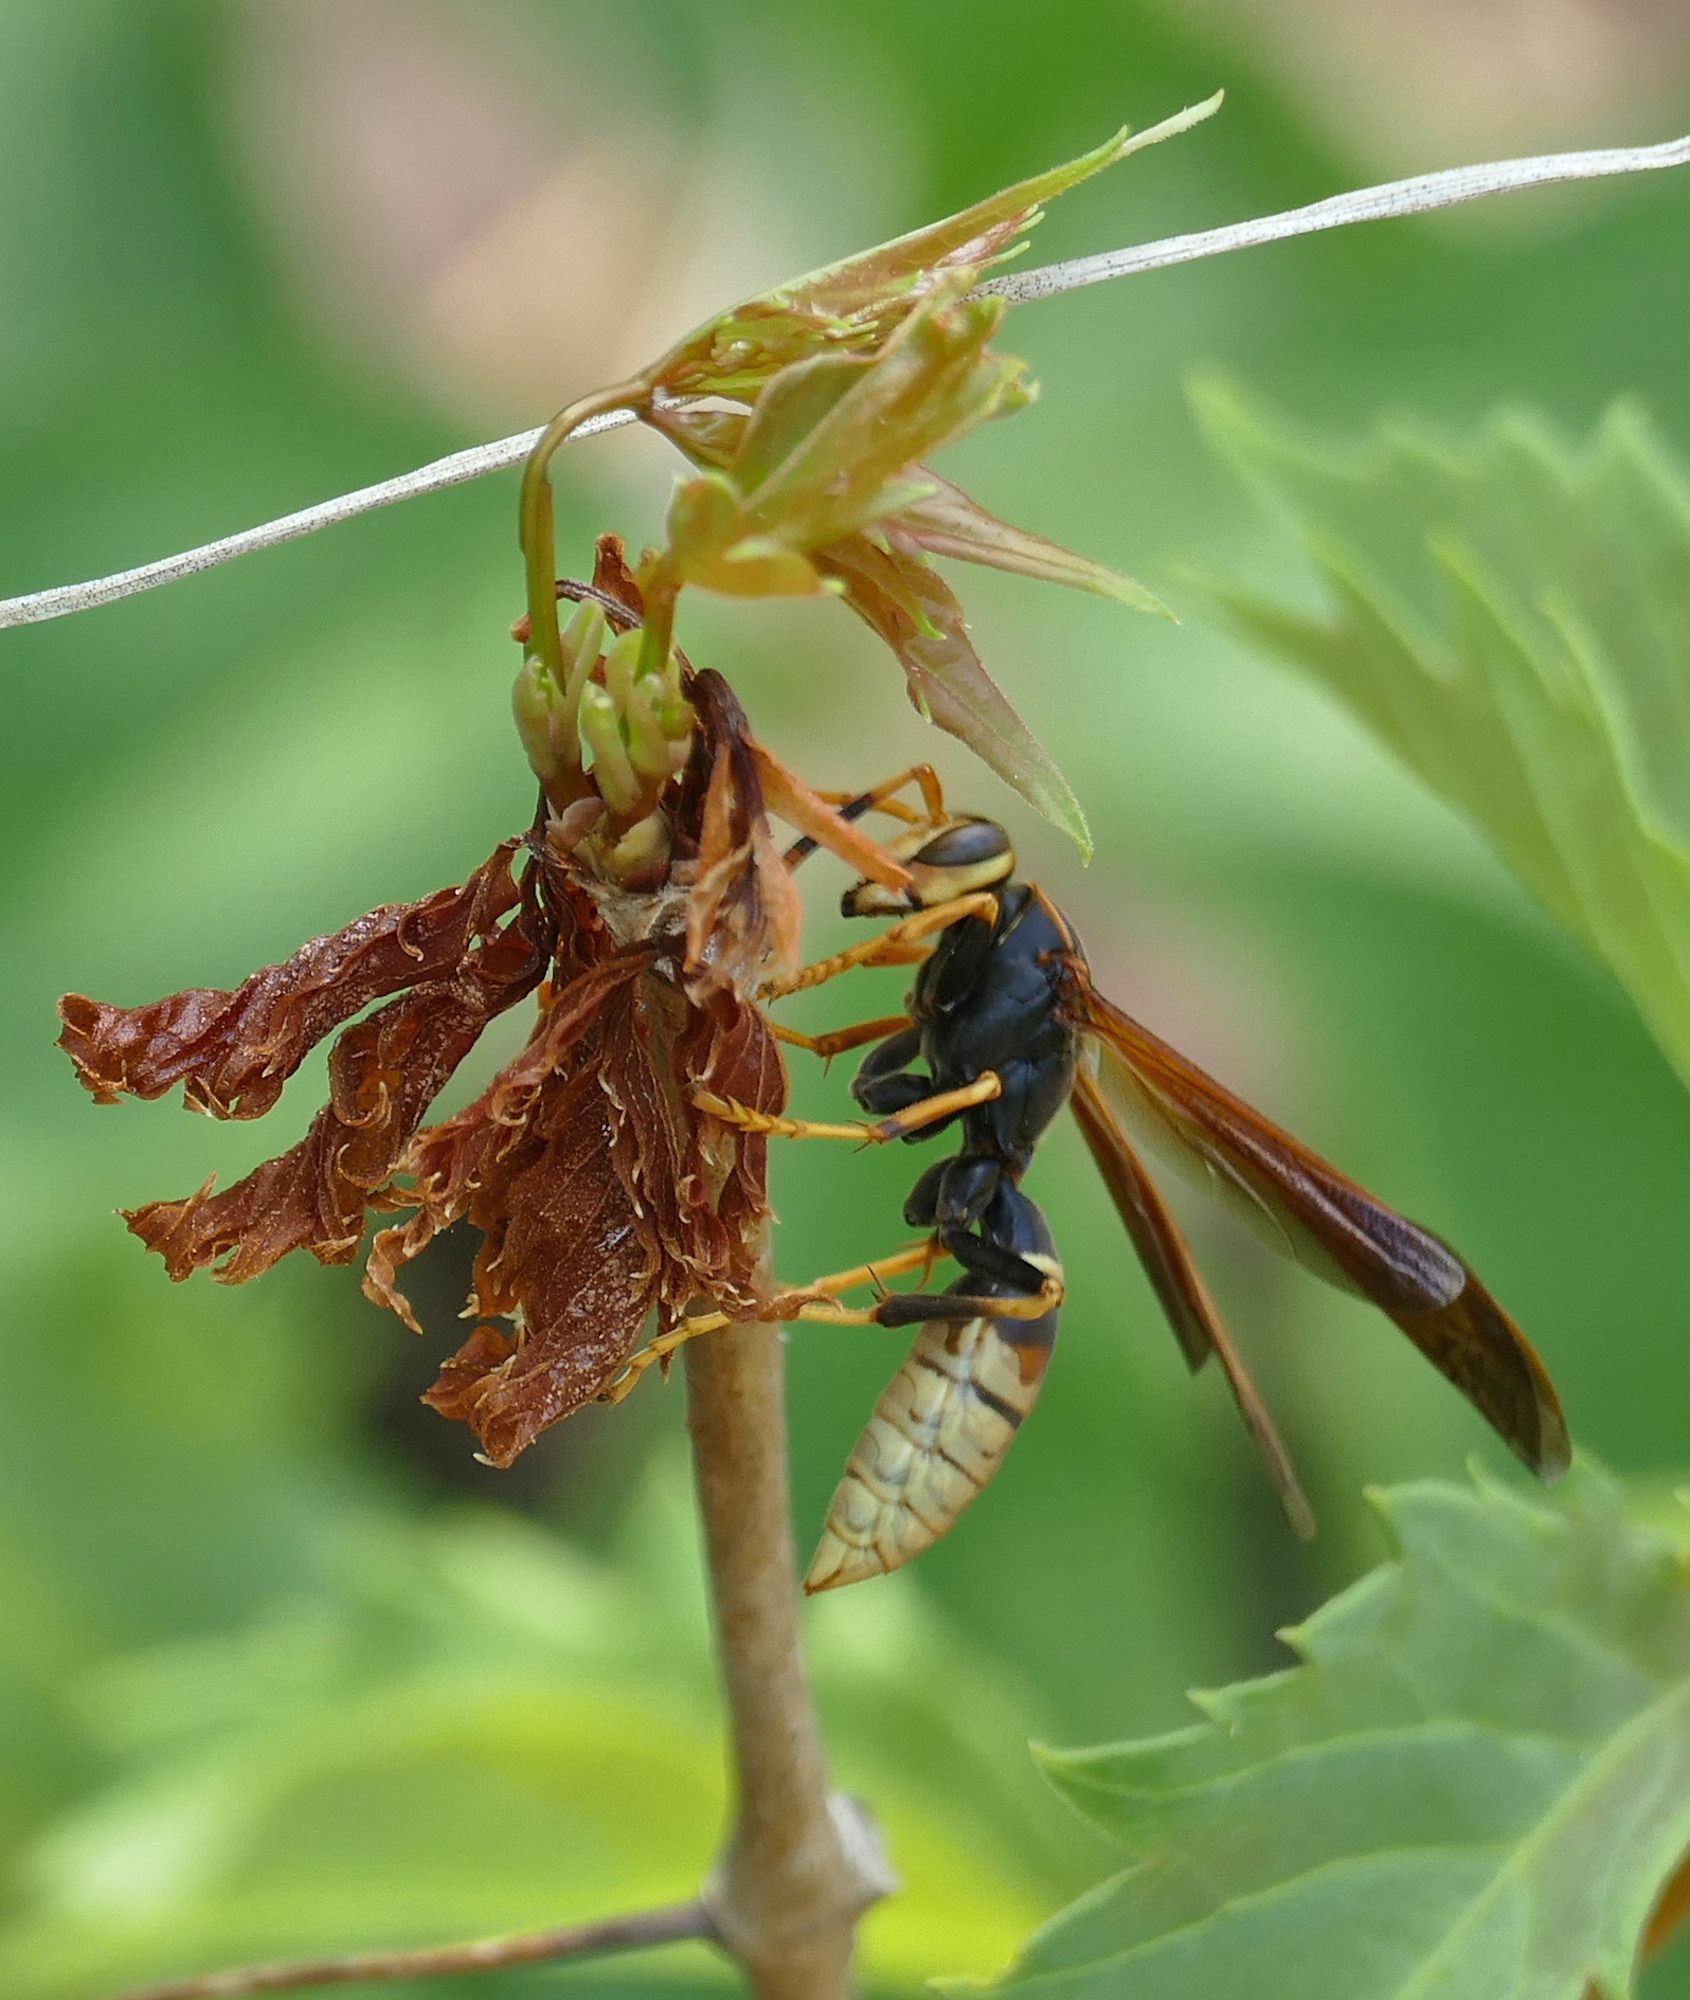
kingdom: Animalia
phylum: Arthropoda
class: Insecta
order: Hymenoptera
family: Eumenidae
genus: Polistes
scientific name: Polistes comanchus
